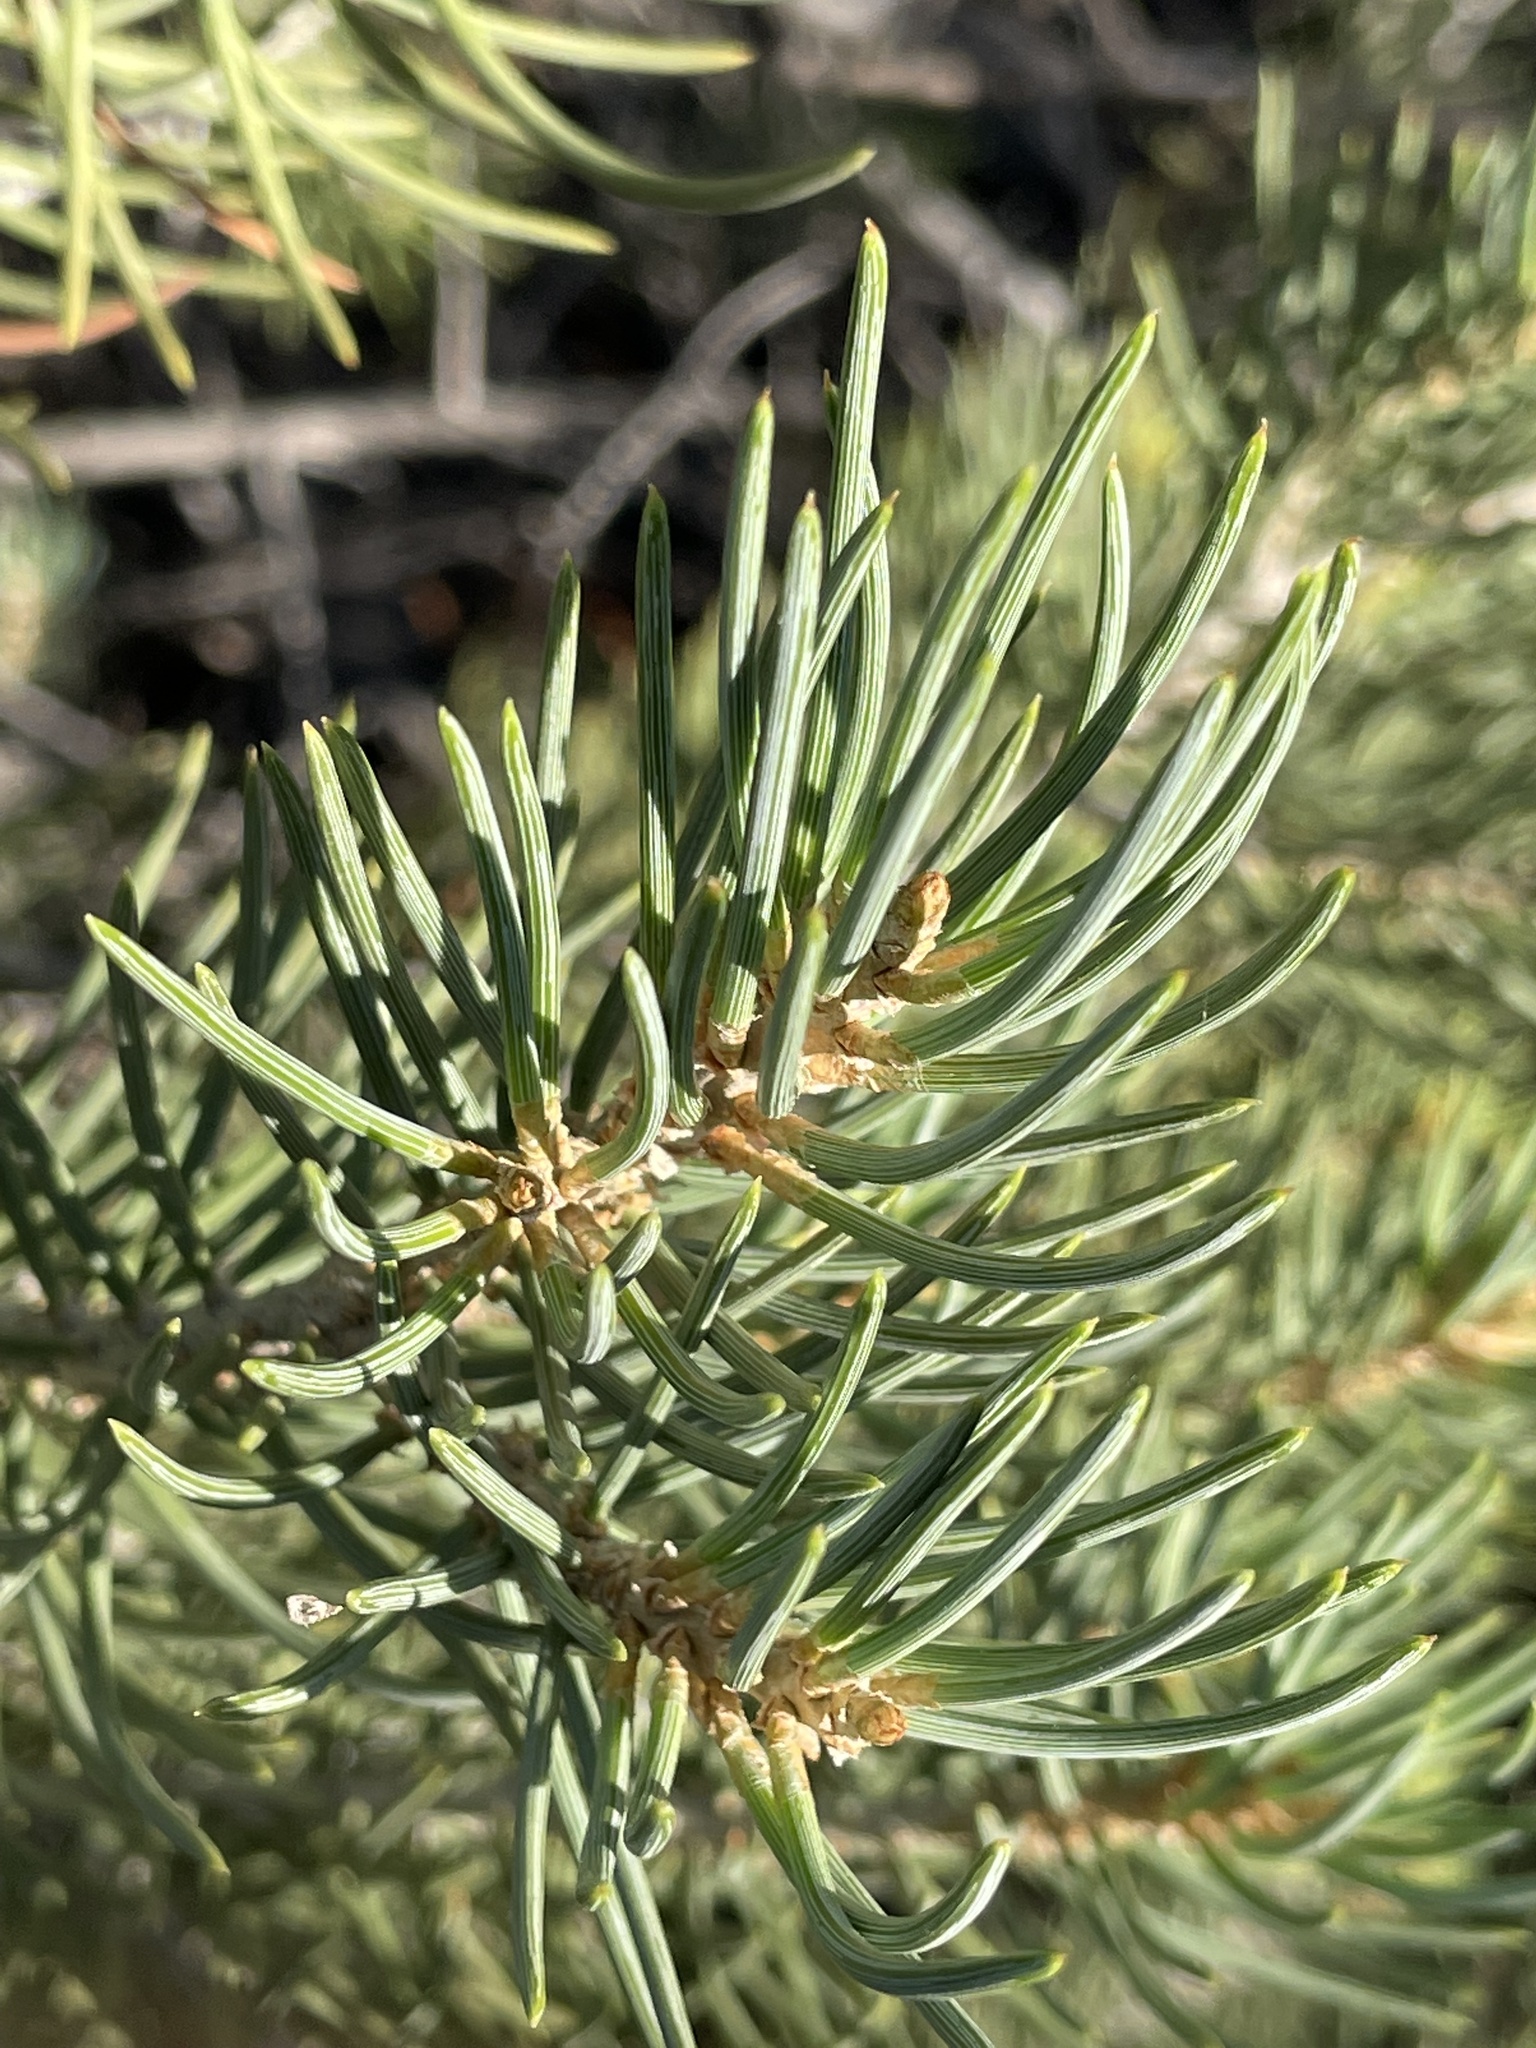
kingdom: Plantae
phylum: Tracheophyta
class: Pinopsida
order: Pinales
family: Pinaceae
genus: Pinus
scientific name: Pinus monophylla
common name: One-leaved nut pine
